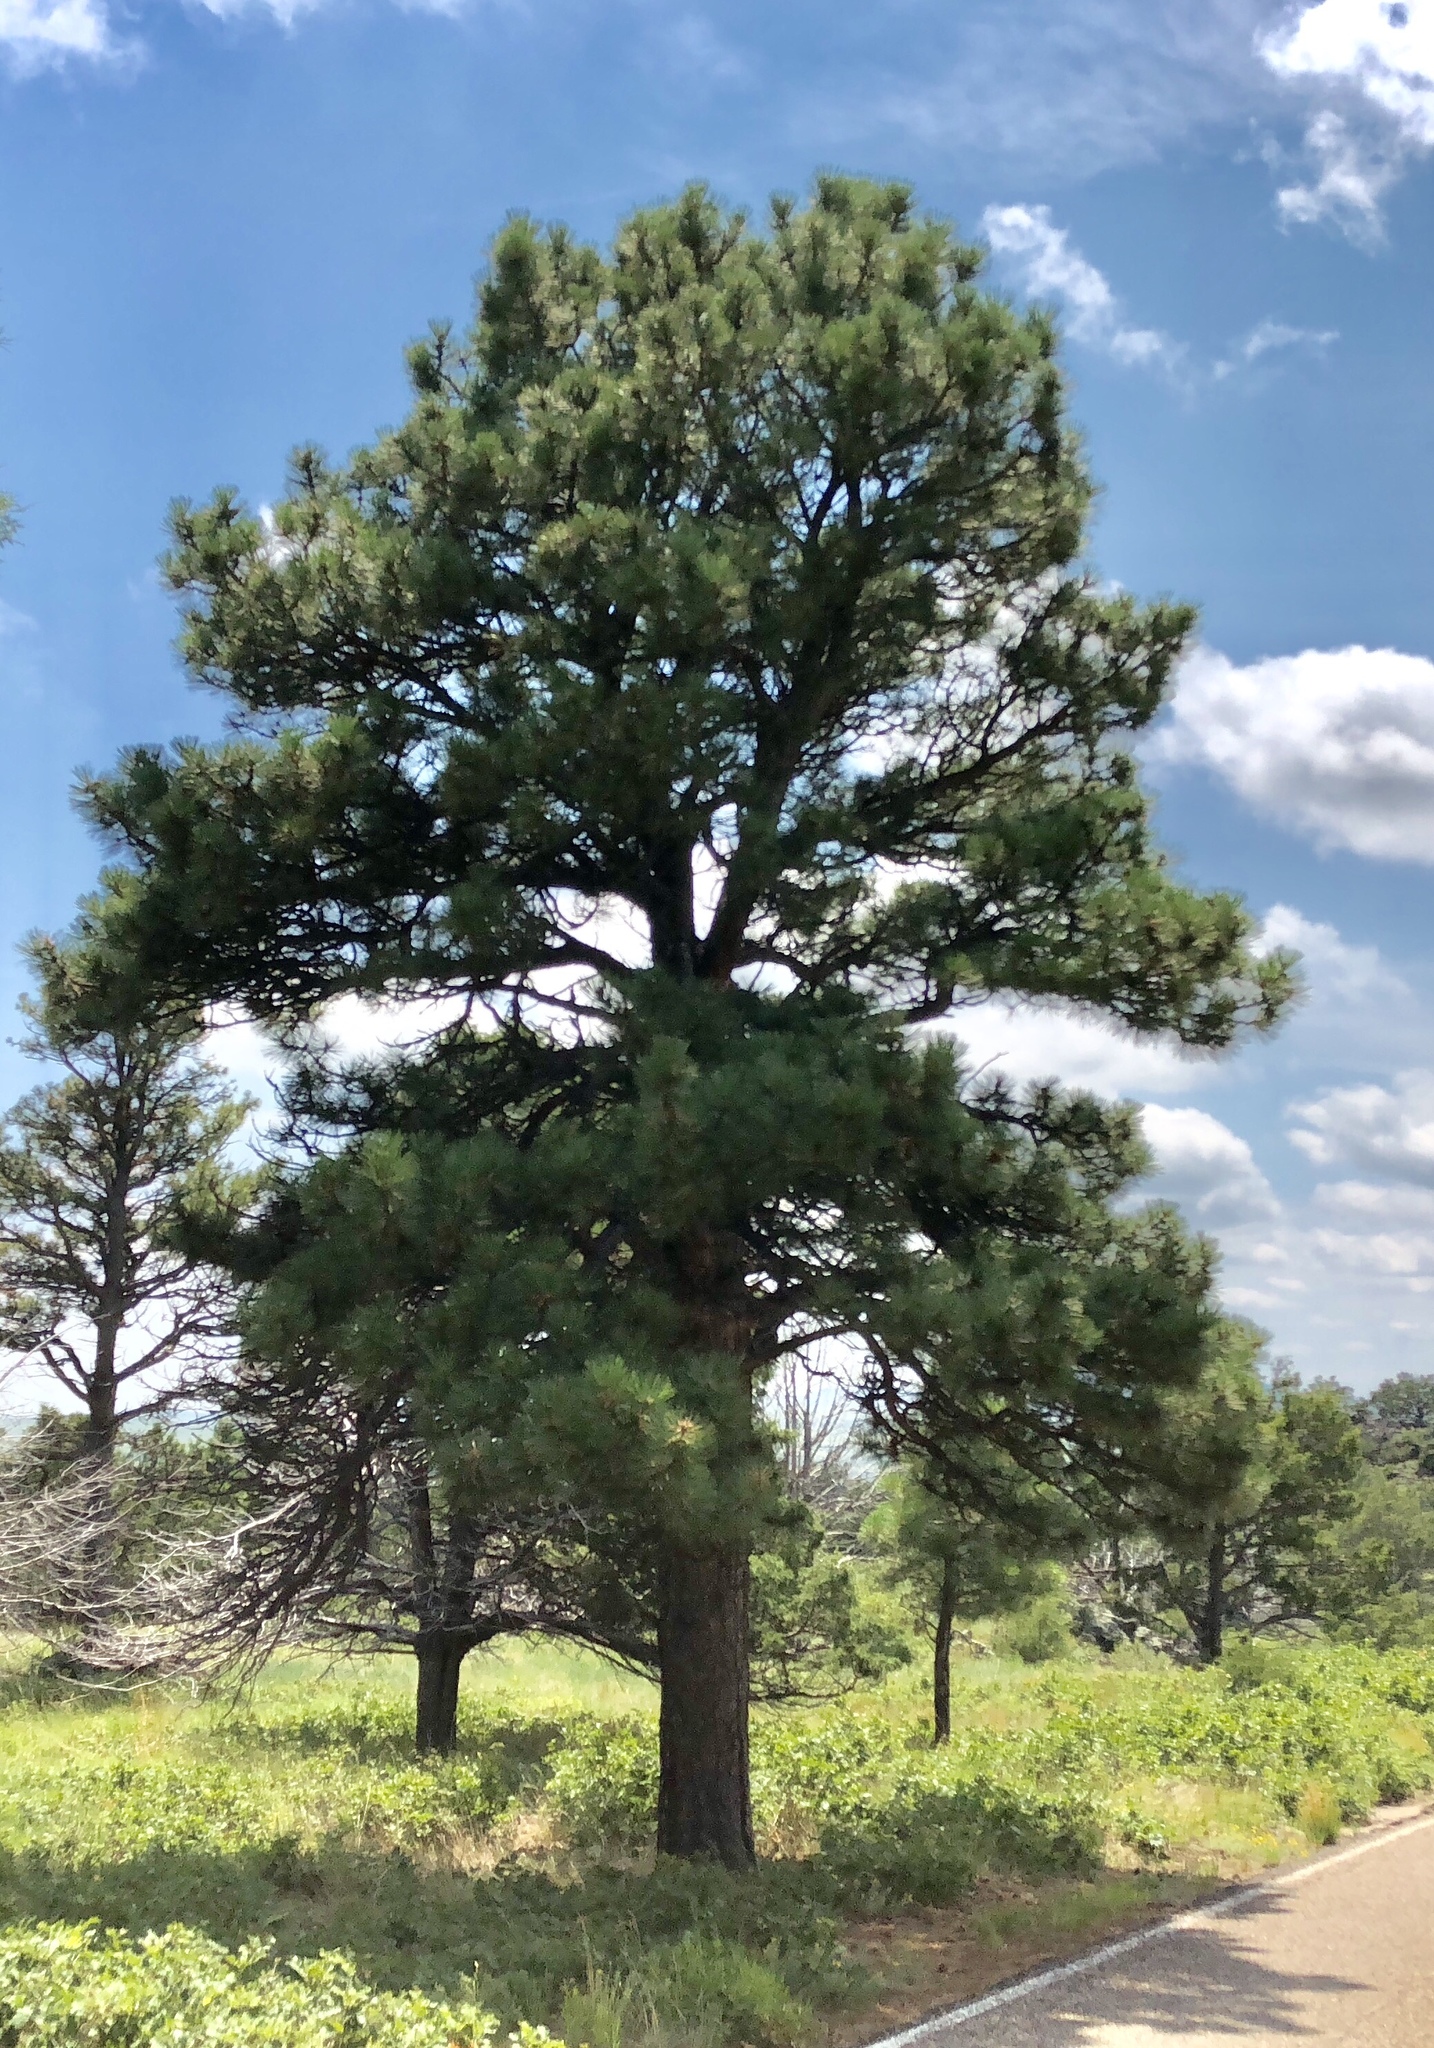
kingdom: Plantae
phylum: Tracheophyta
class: Pinopsida
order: Pinales
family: Pinaceae
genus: Pinus
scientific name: Pinus ponderosa
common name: Western yellow-pine
